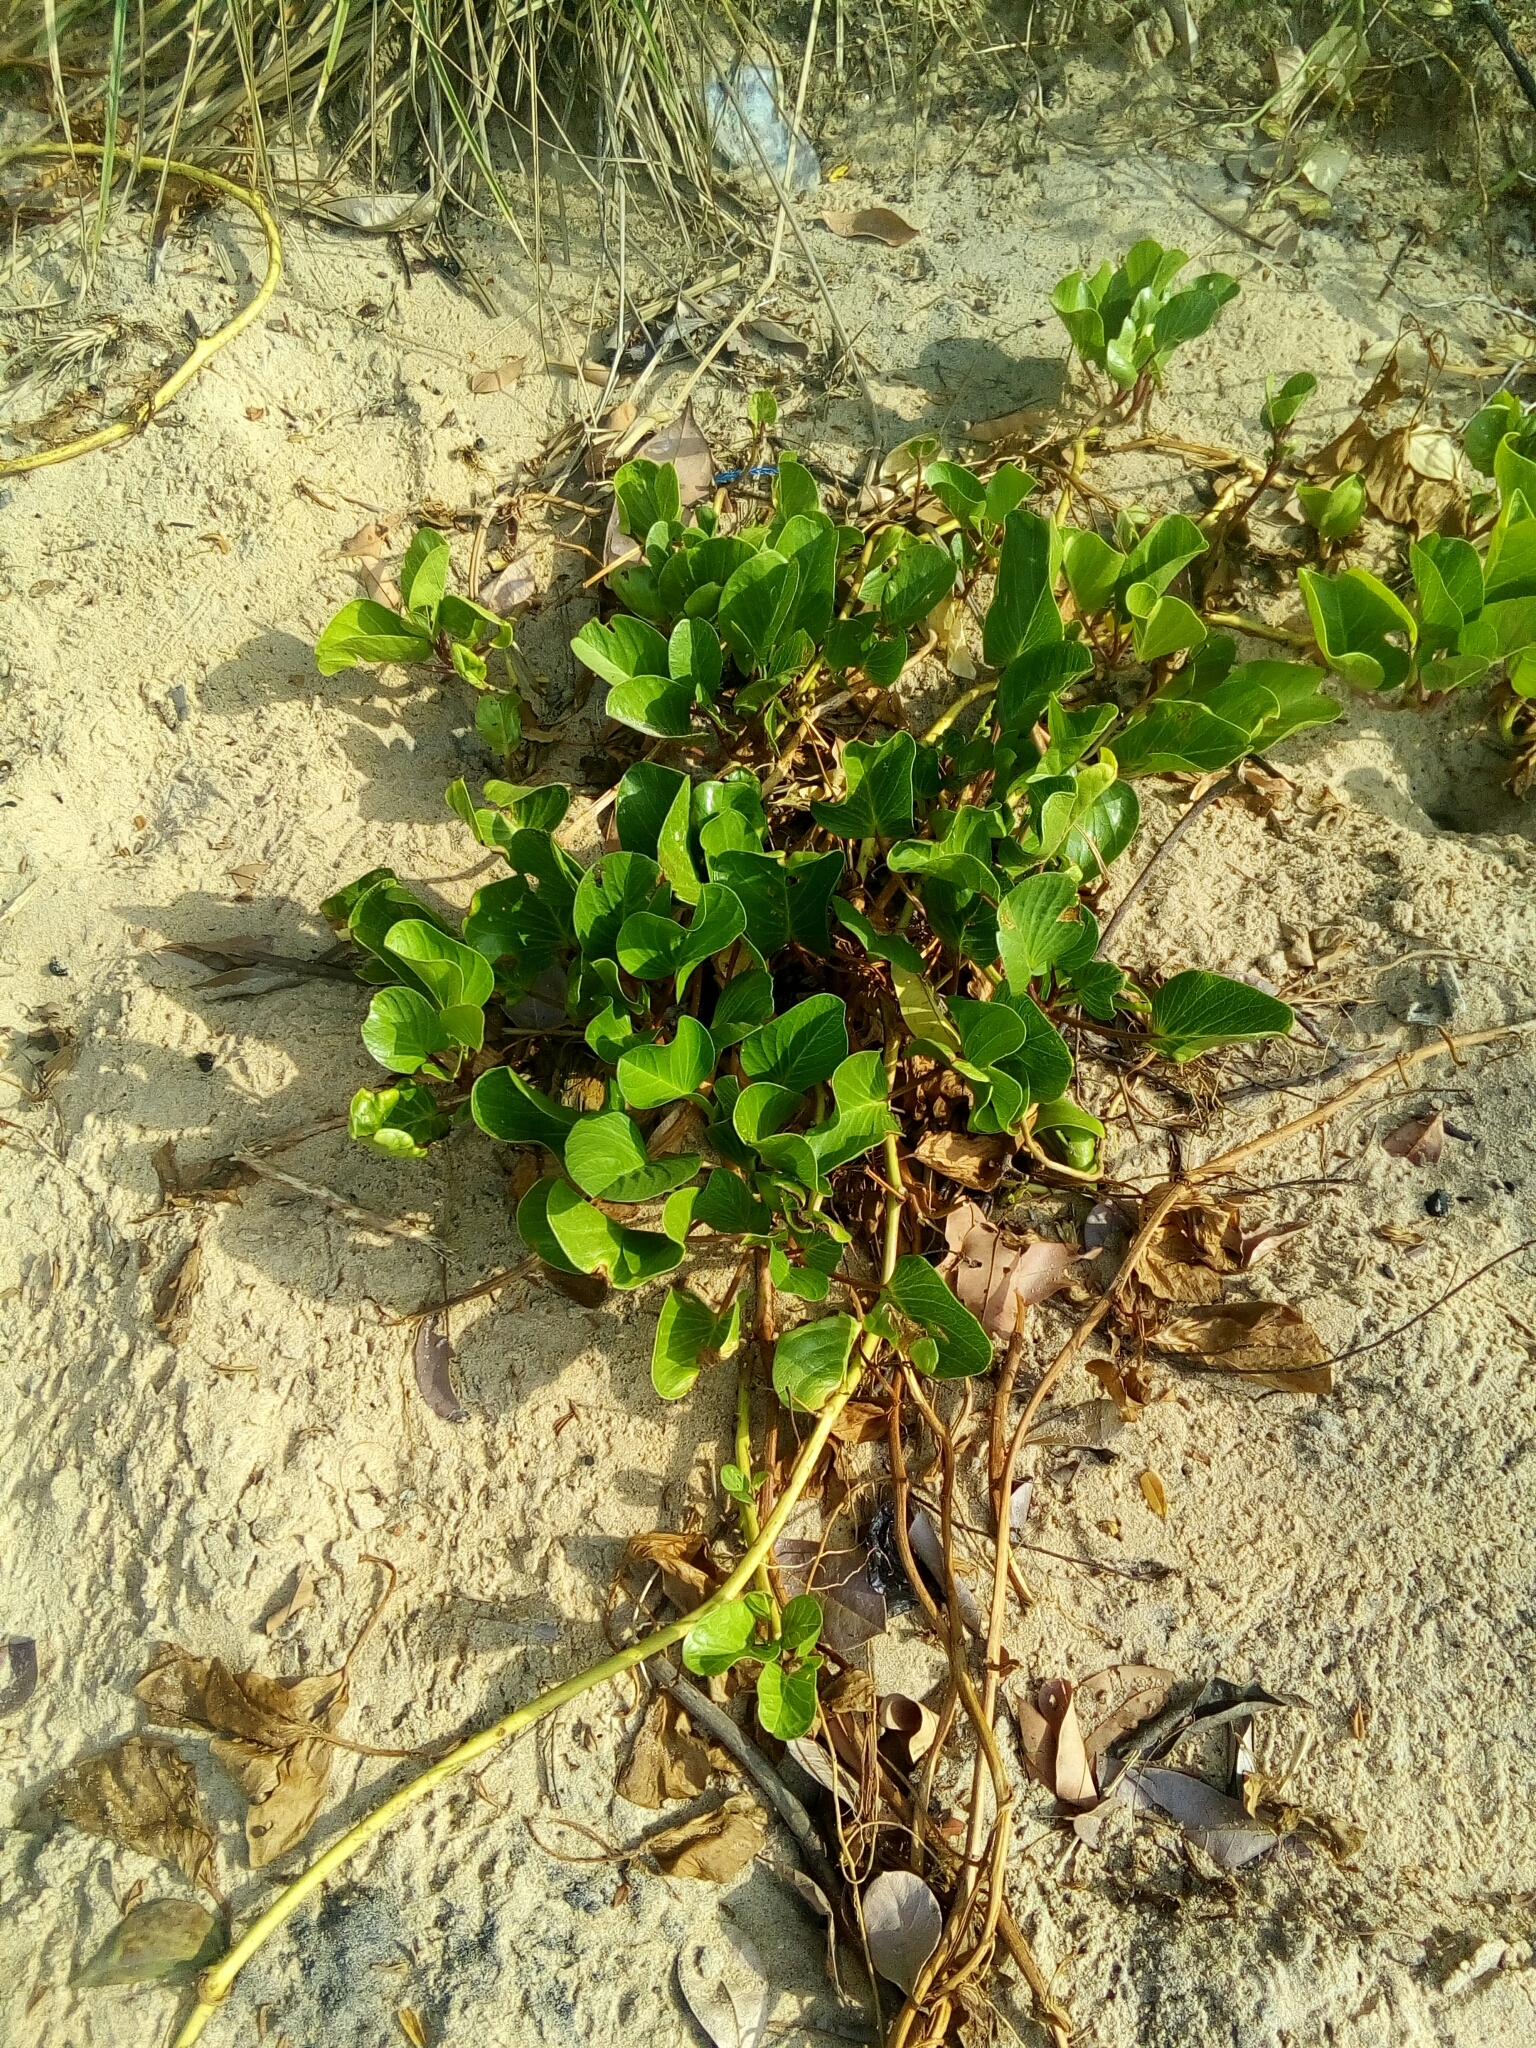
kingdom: Plantae
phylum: Tracheophyta
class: Magnoliopsida
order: Solanales
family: Convolvulaceae
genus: Ipomoea
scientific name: Ipomoea pes-caprae
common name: Beach morning glory
